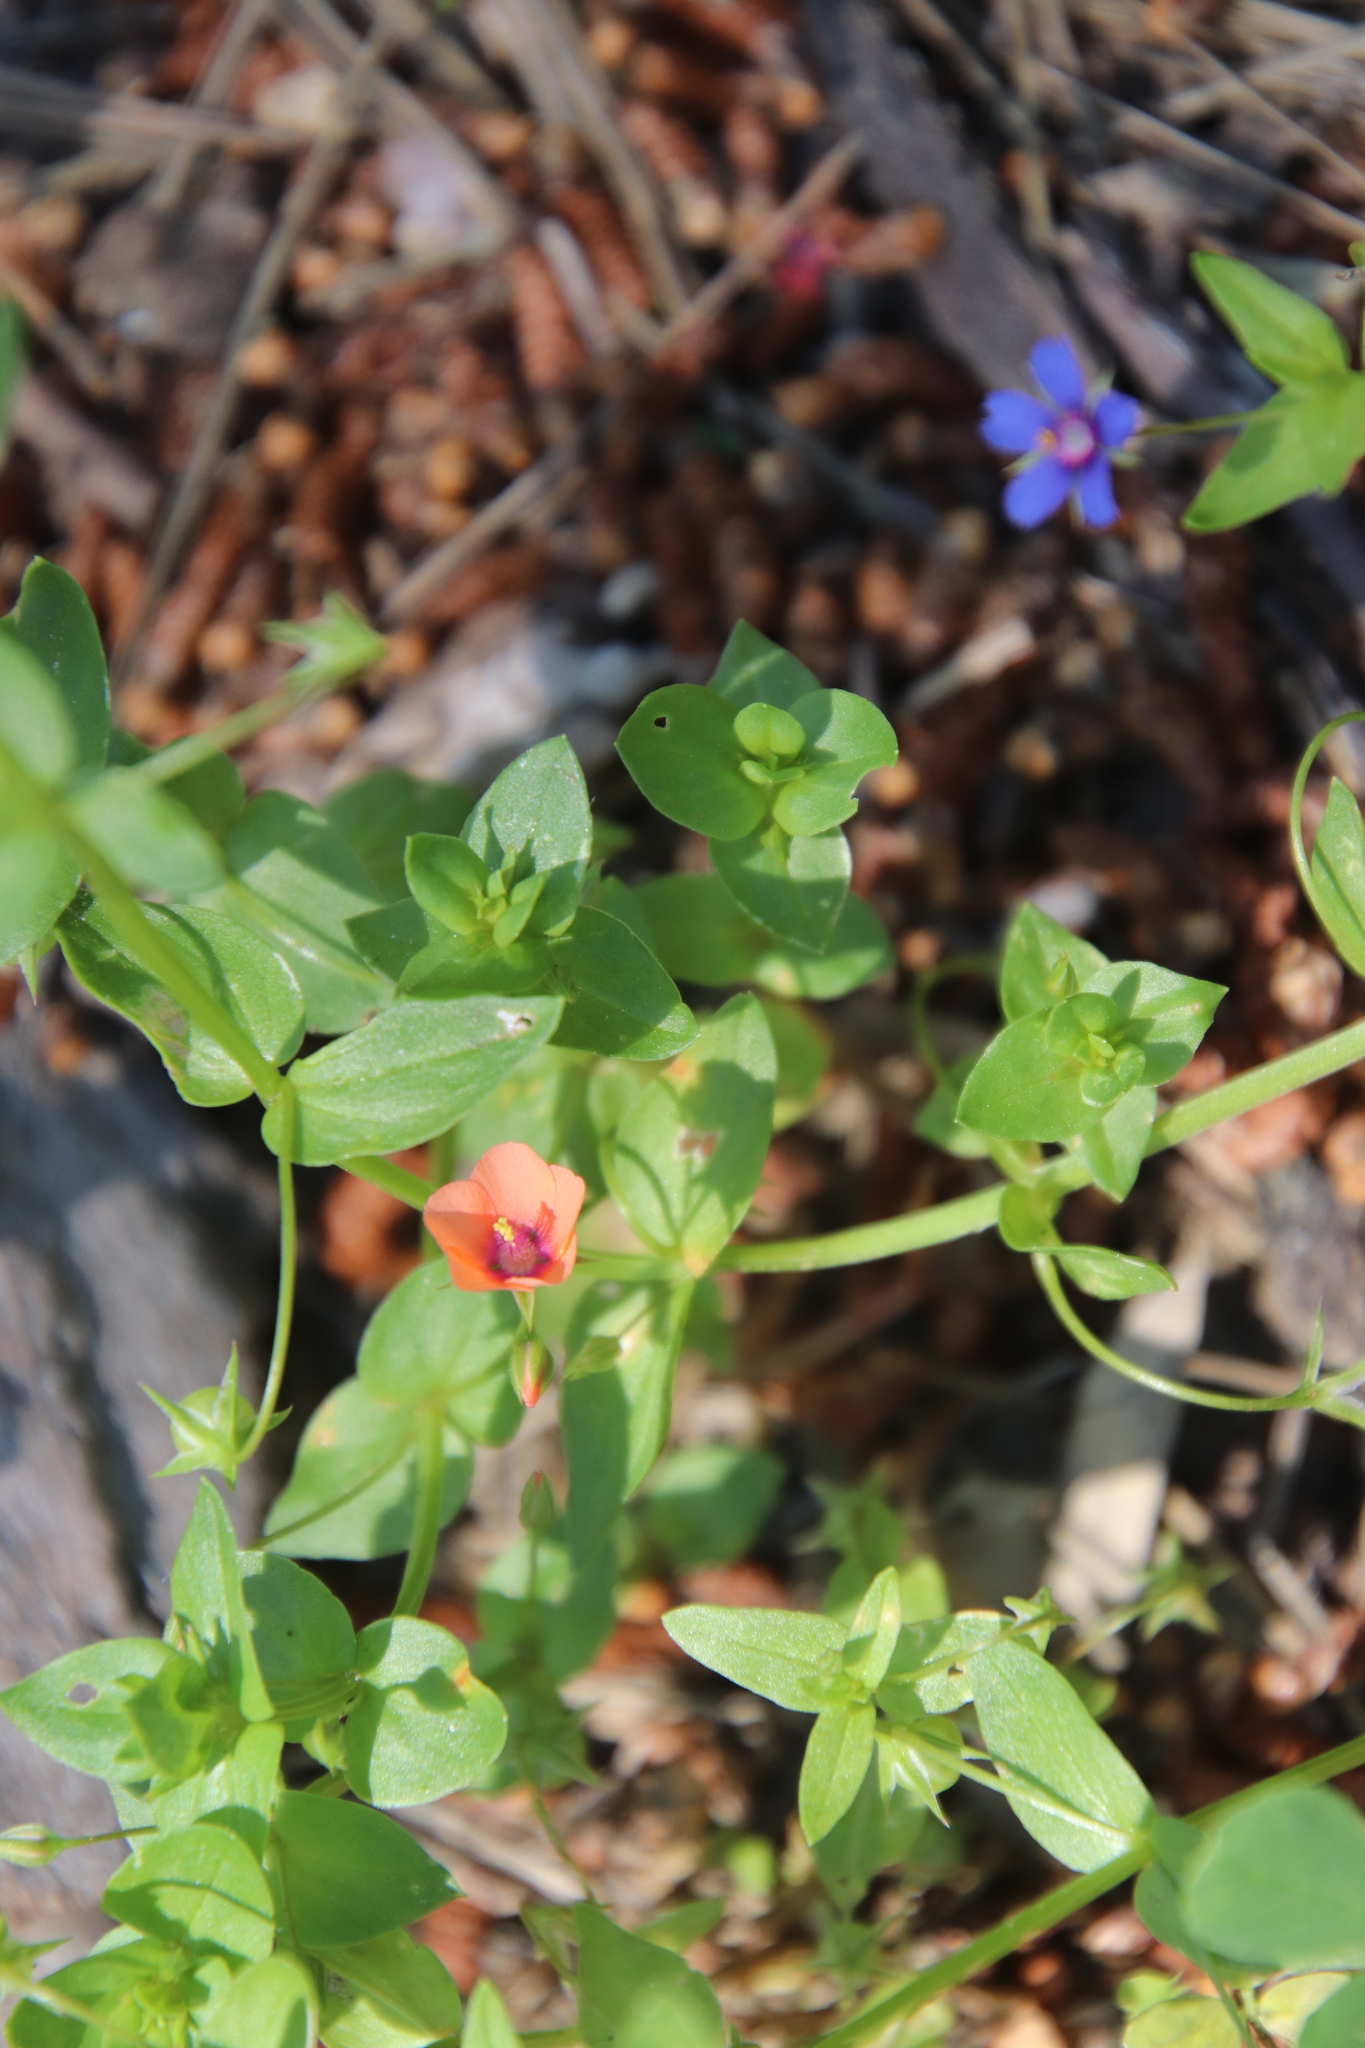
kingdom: Plantae
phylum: Tracheophyta
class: Magnoliopsida
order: Ericales
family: Primulaceae
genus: Lysimachia
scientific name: Lysimachia loeflingii
